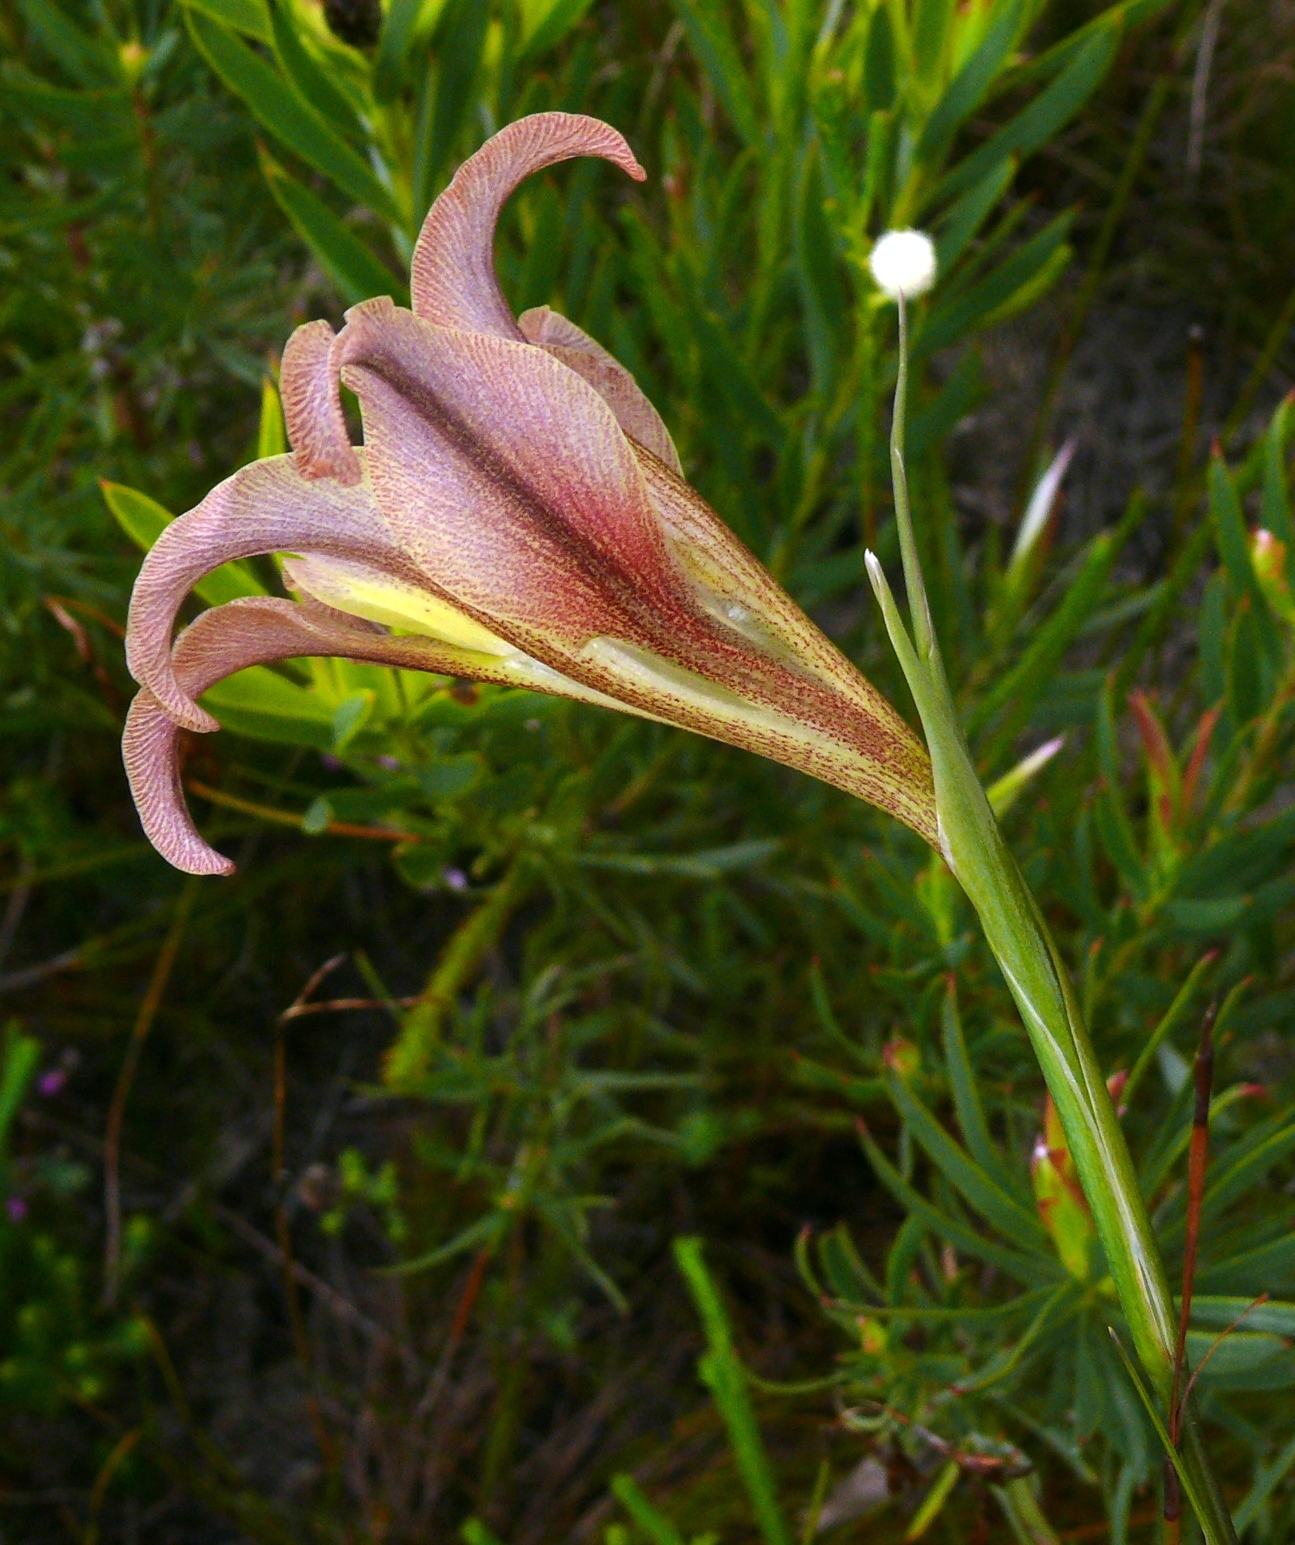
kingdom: Plantae
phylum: Tracheophyta
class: Liliopsida
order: Asparagales
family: Iridaceae
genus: Gladiolus
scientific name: Gladiolus liliaceus
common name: Large brown afrikaner
